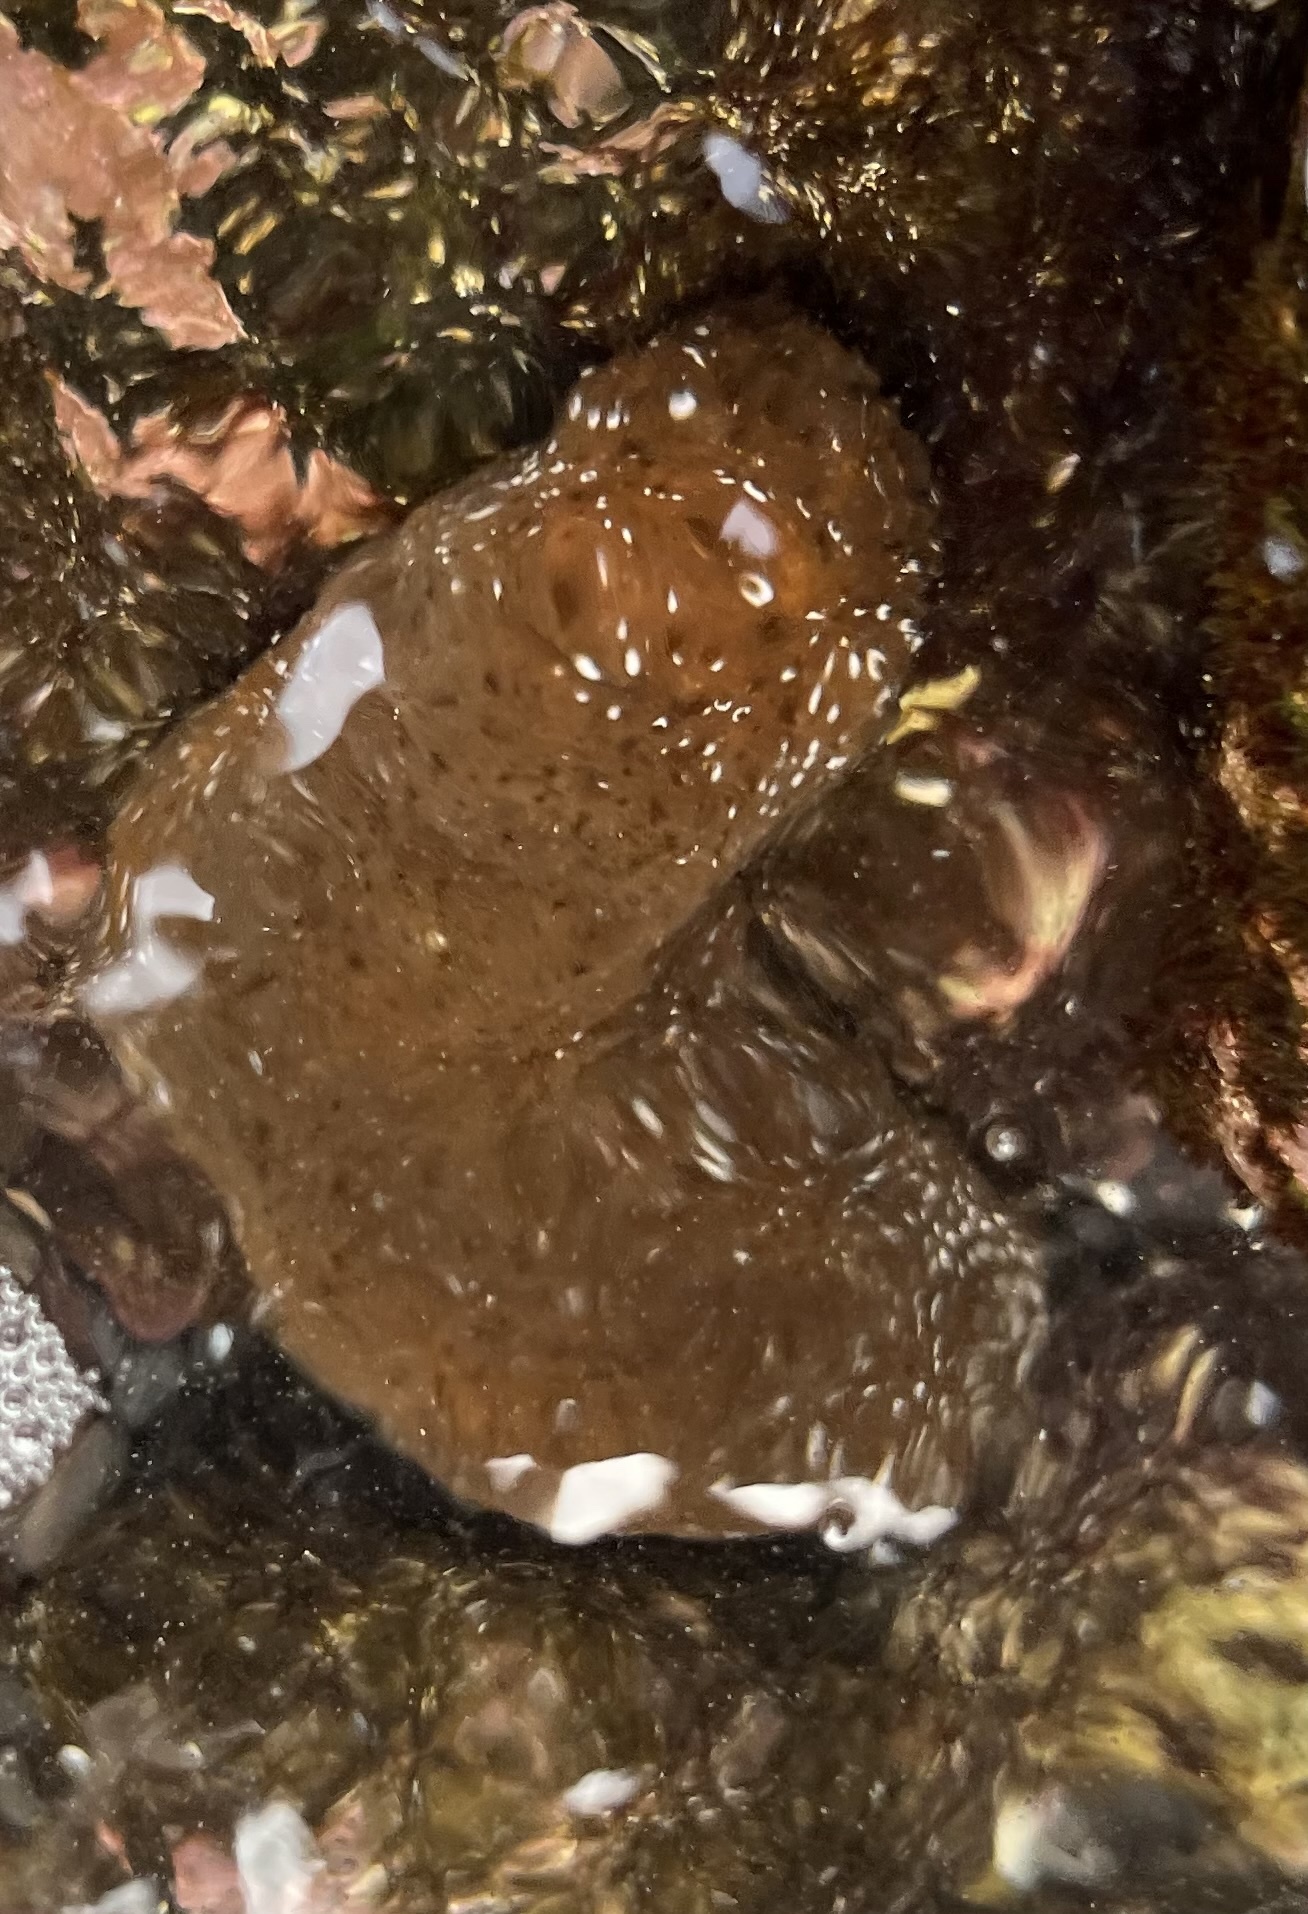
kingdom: Animalia
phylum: Echinodermata
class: Holothuroidea
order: Holothuriida
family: Holothuriidae
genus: Actinopyga
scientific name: Actinopyga varians
